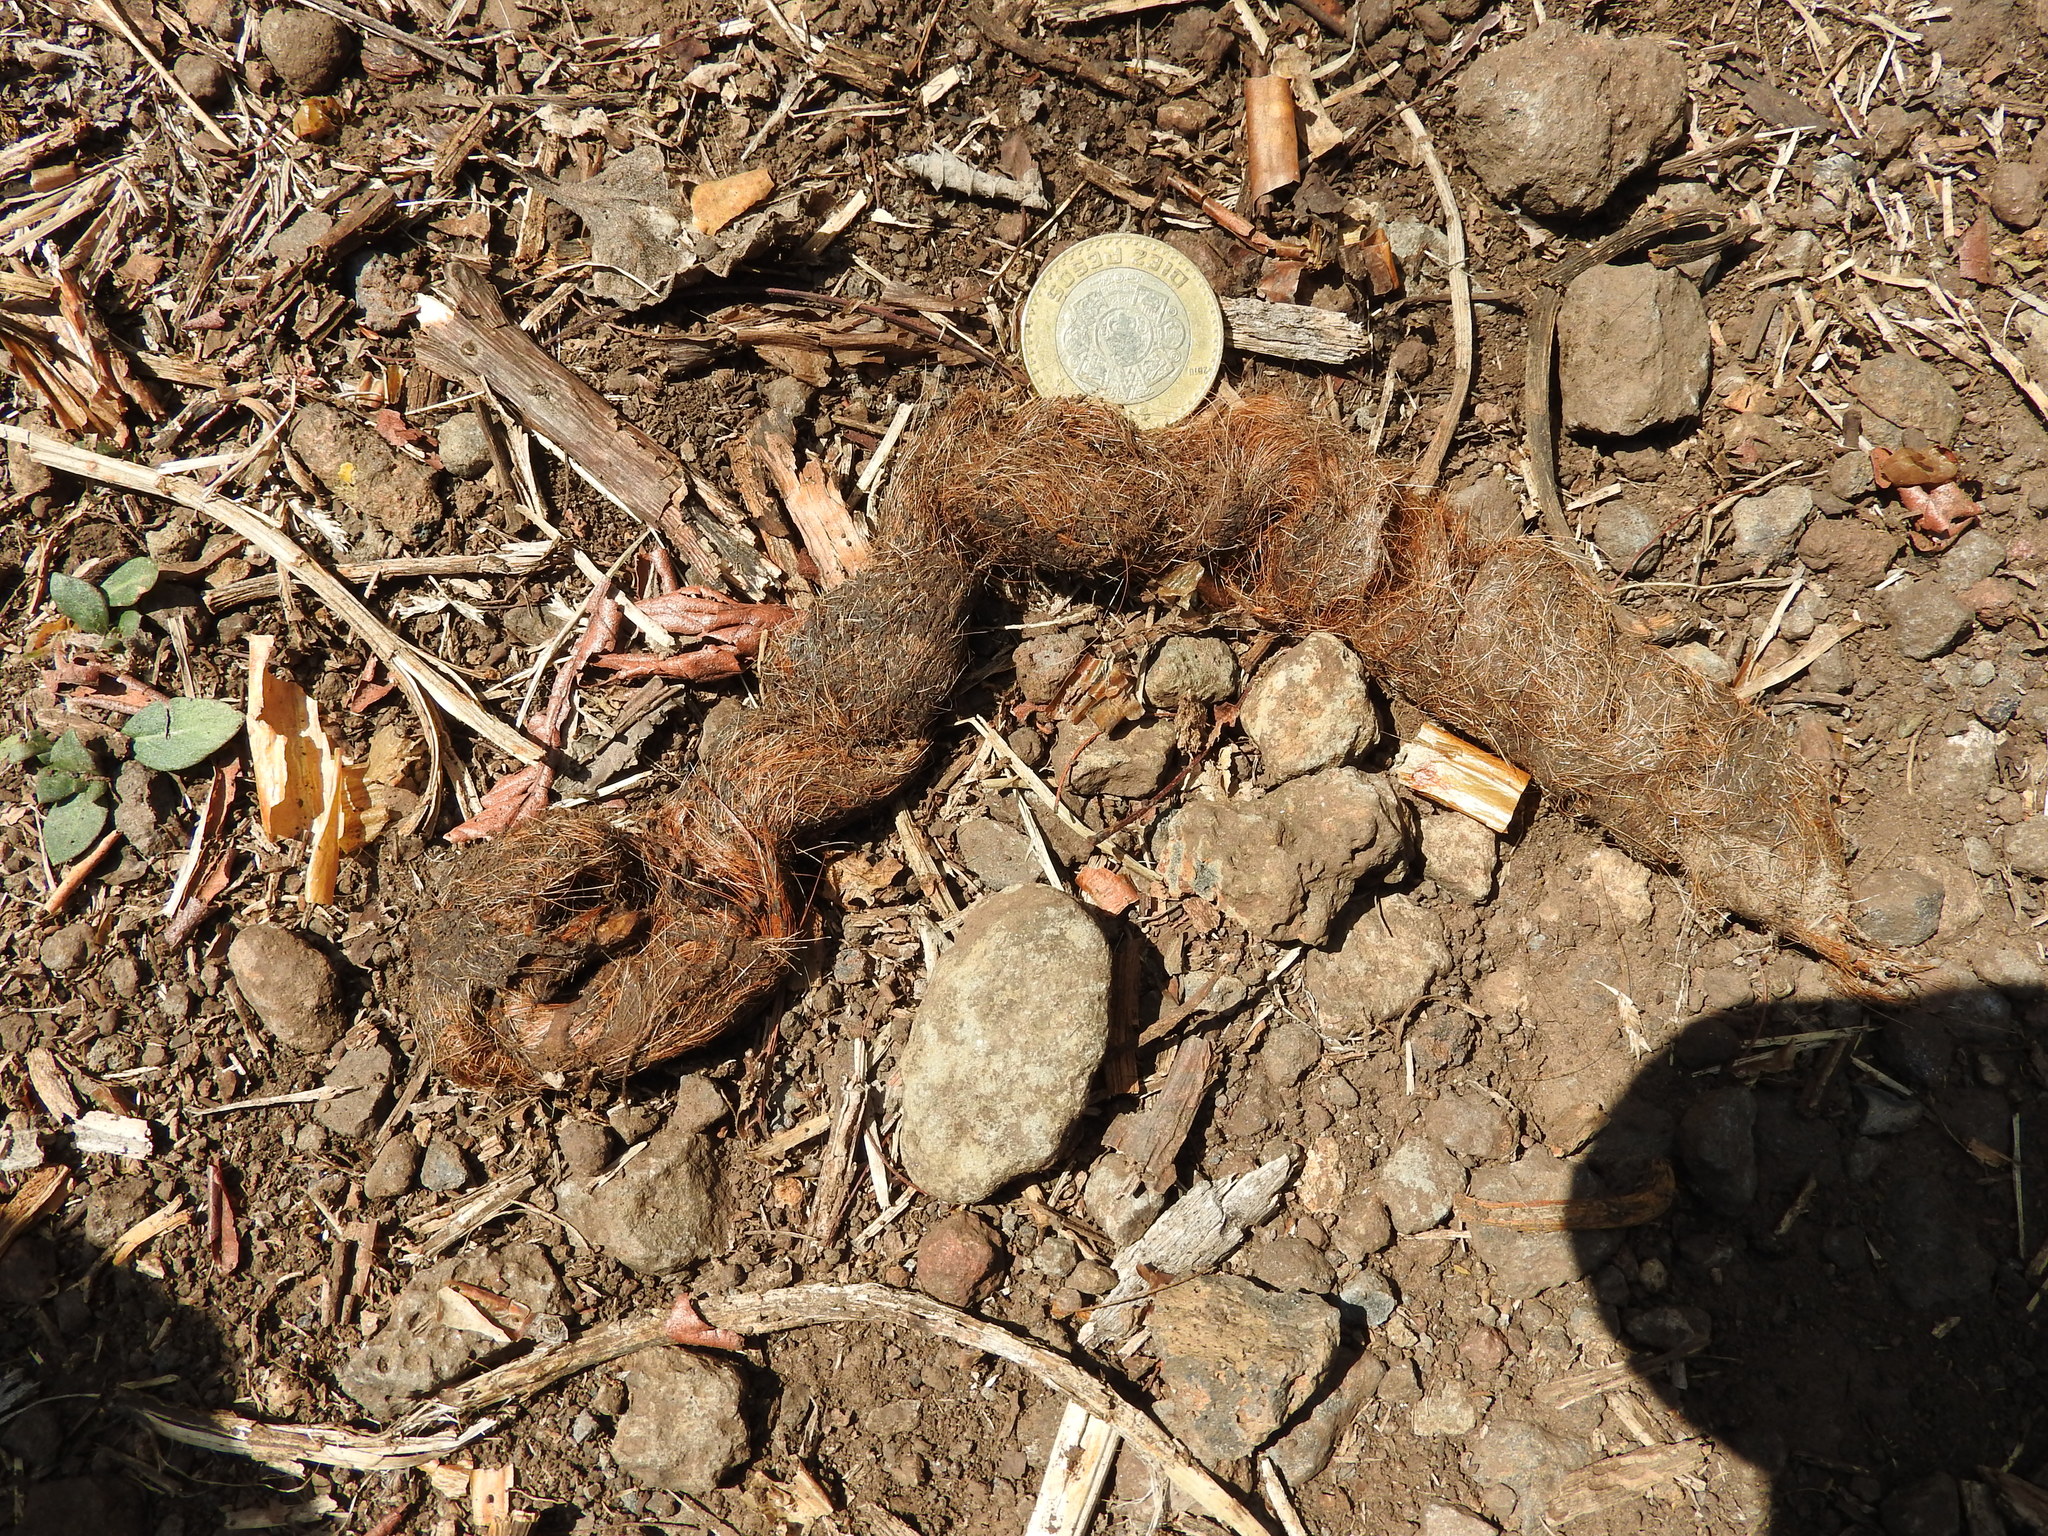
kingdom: Animalia
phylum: Chordata
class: Mammalia
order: Carnivora
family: Canidae
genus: Canis
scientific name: Canis latrans
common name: Coyote
